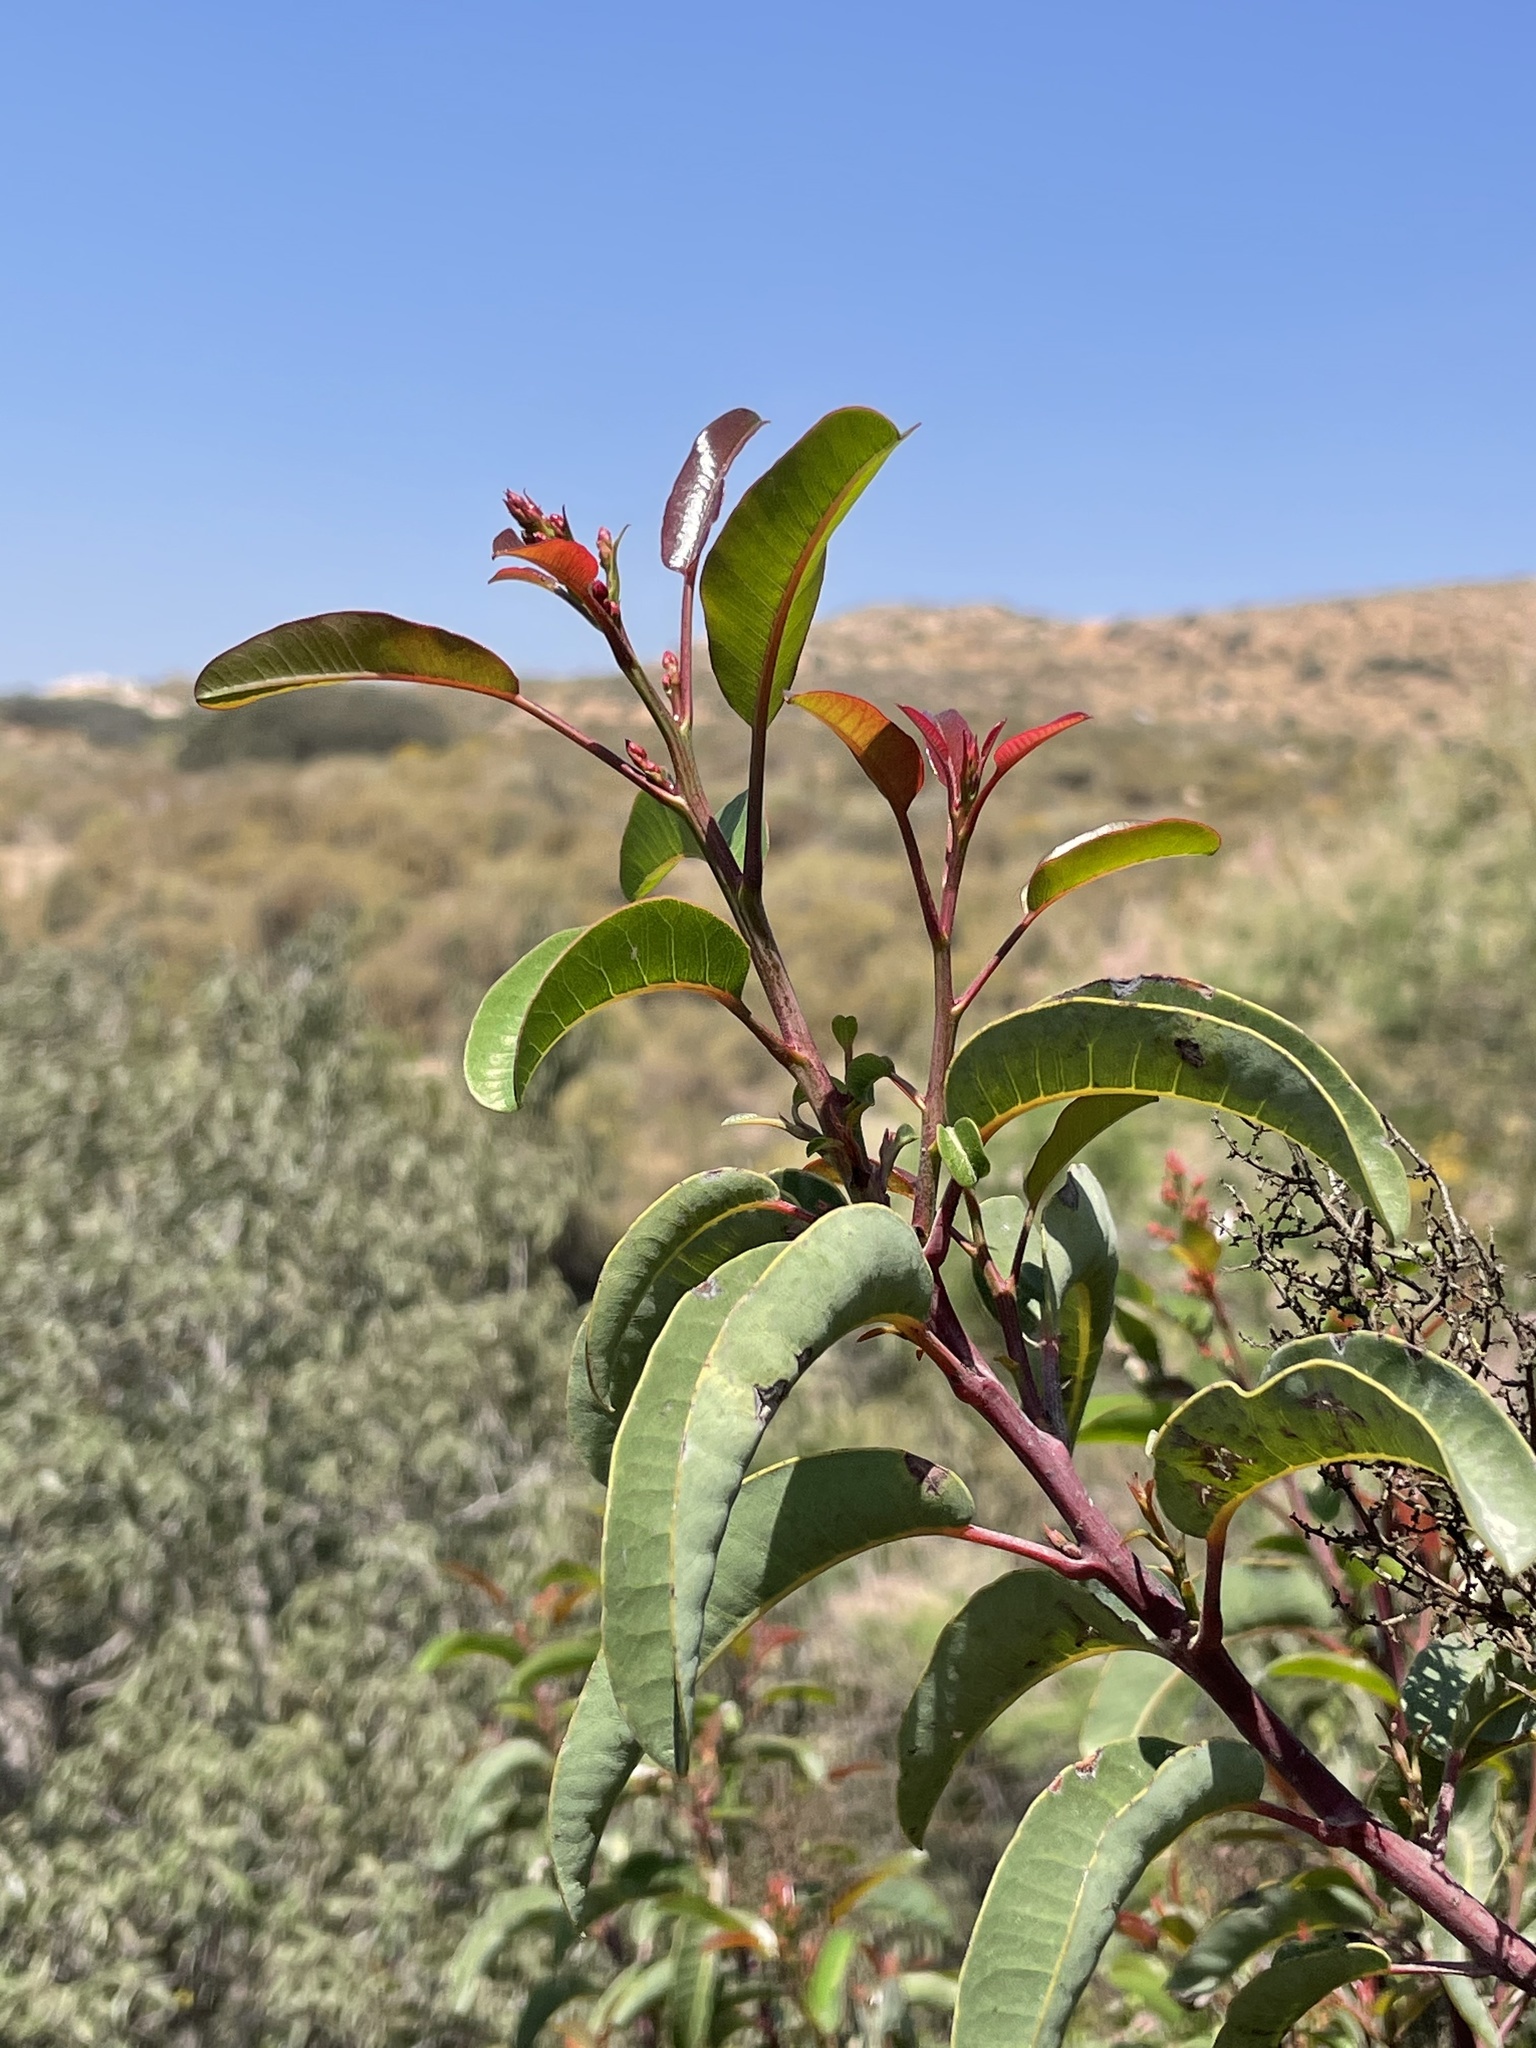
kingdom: Plantae
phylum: Tracheophyta
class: Magnoliopsida
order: Sapindales
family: Anacardiaceae
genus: Malosma
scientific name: Malosma laurina
